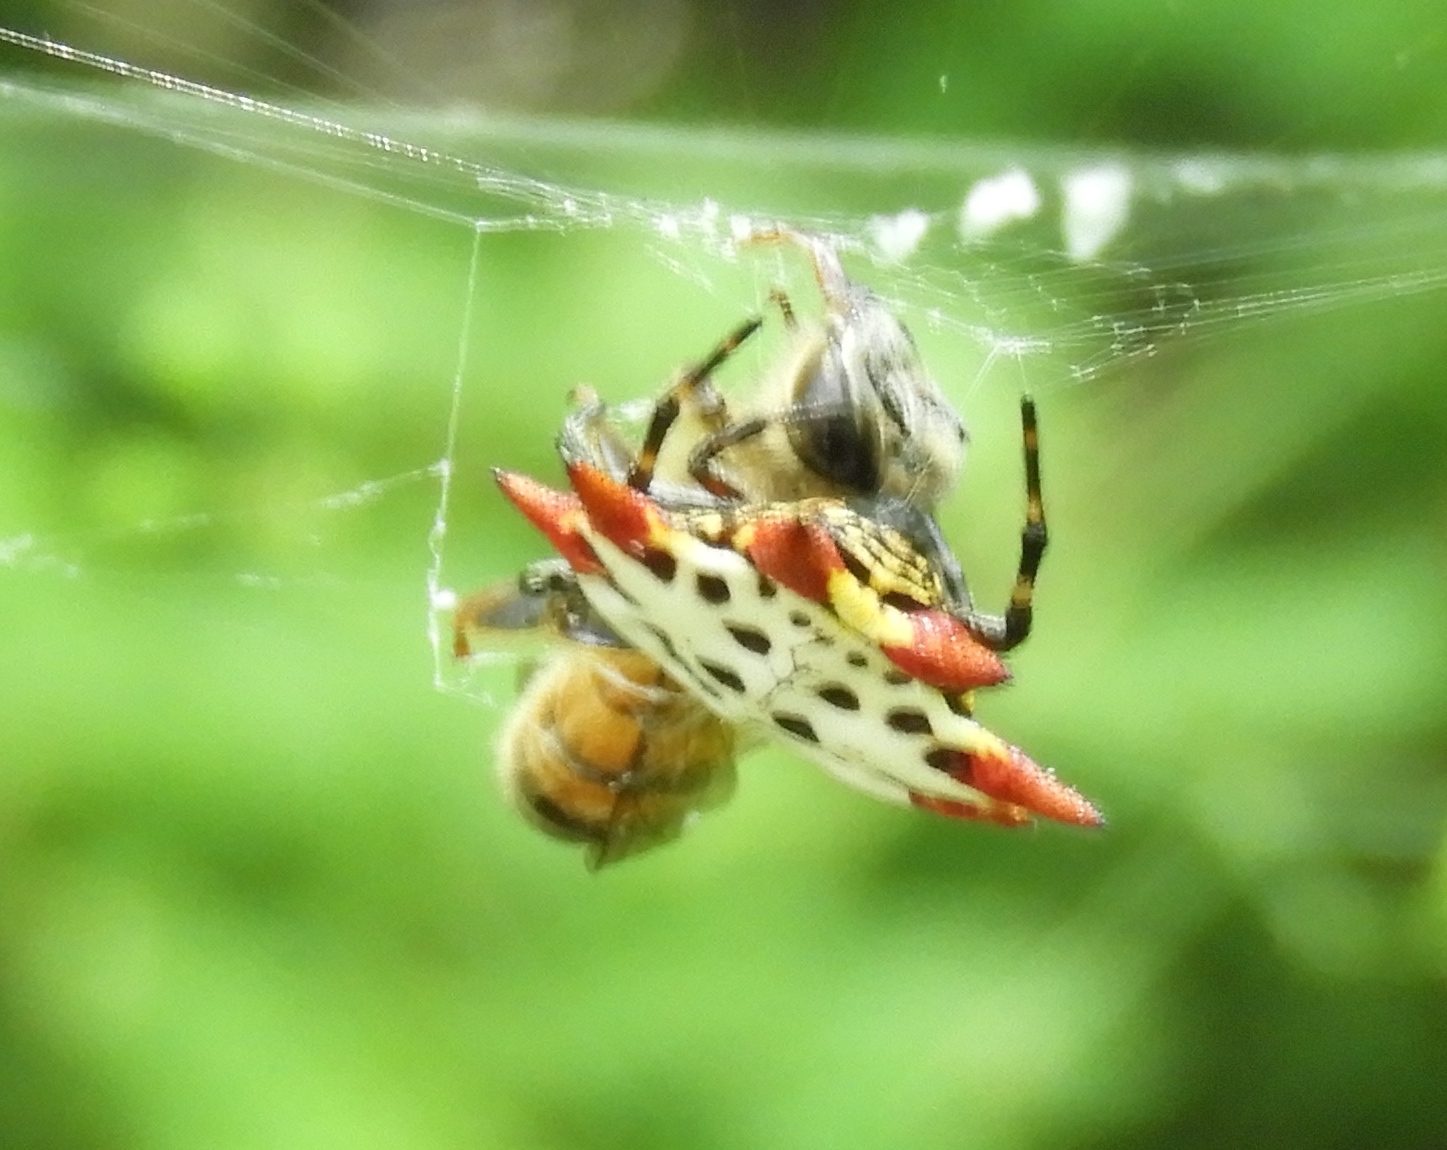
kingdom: Animalia
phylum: Arthropoda
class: Arachnida
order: Araneae
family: Araneidae
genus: Gasteracantha
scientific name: Gasteracantha cancriformis
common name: Orb weavers
